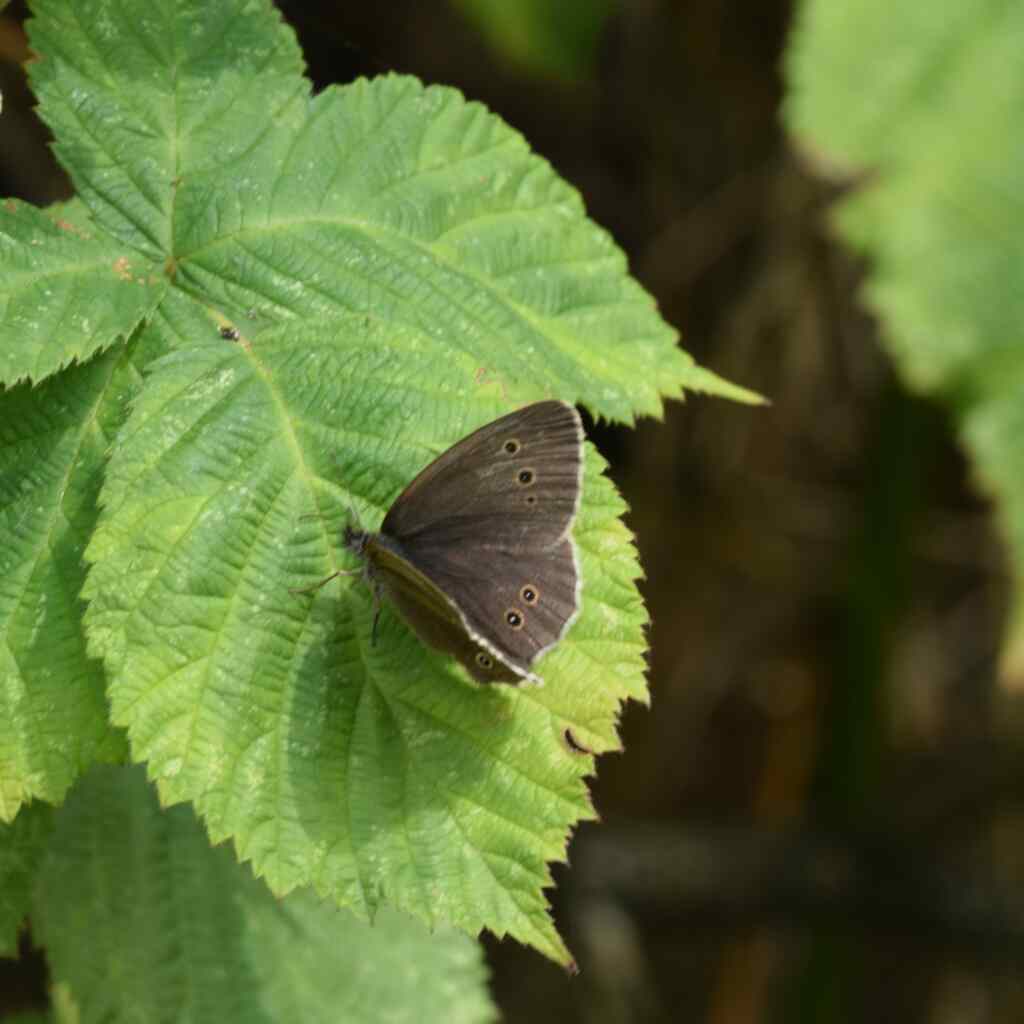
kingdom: Animalia
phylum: Arthropoda
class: Insecta
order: Lepidoptera
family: Nymphalidae
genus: Aphantopus
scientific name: Aphantopus hyperantus
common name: Ringlet
